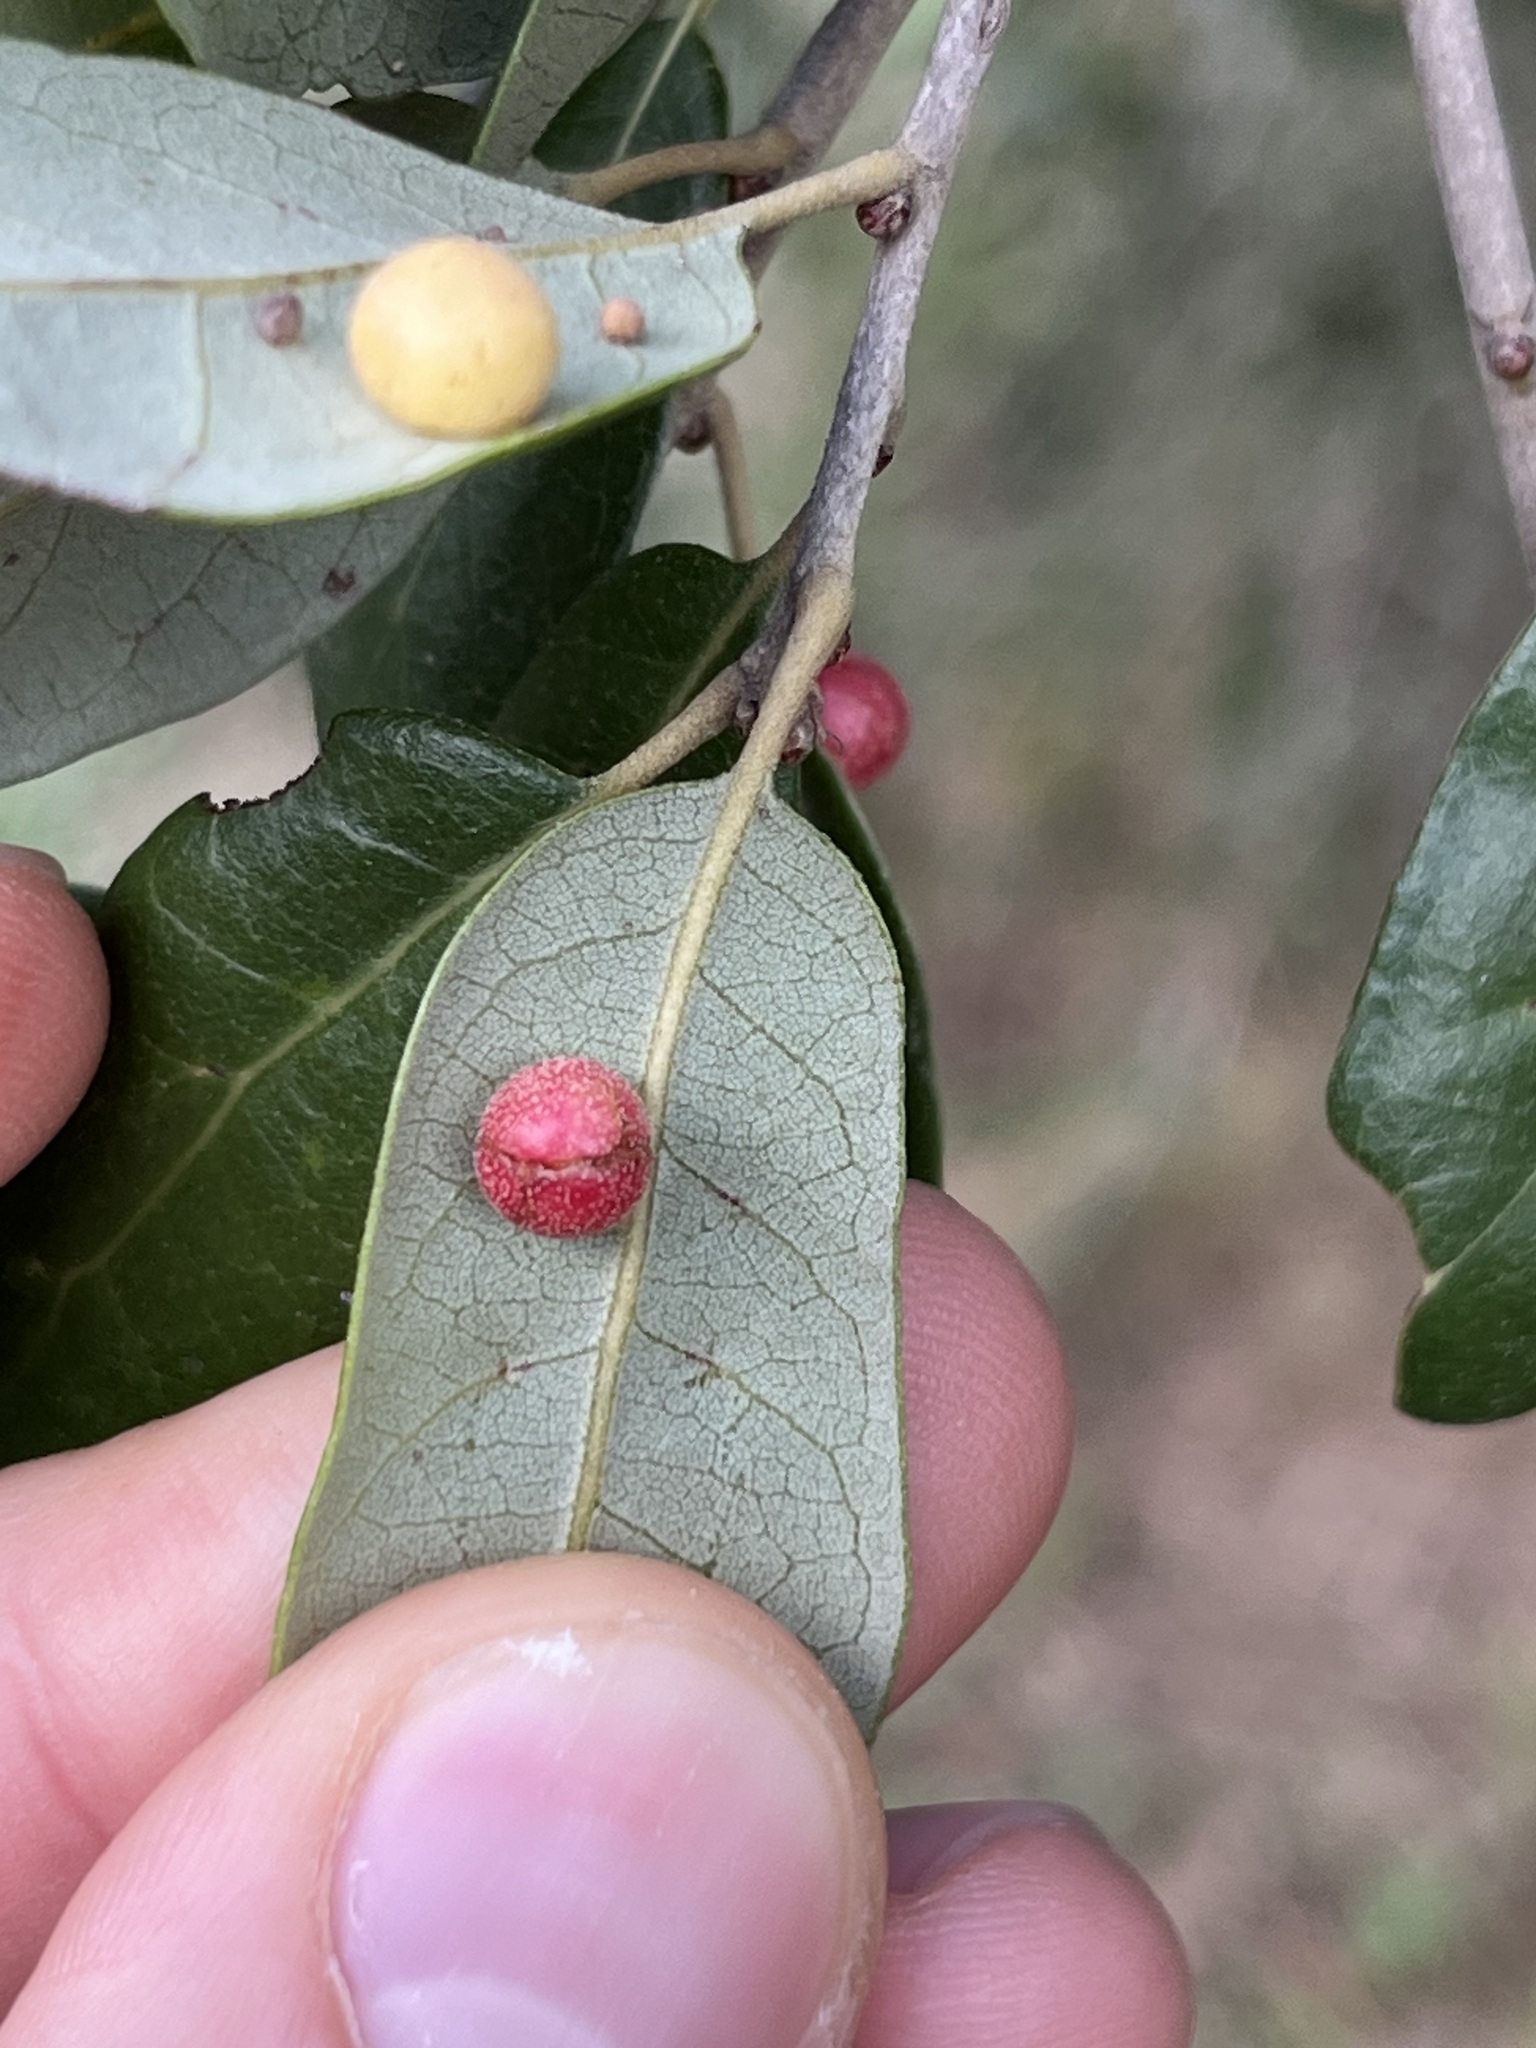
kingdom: Animalia
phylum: Arthropoda
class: Insecta
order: Hymenoptera
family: Cynipidae
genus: Belonocnema
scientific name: Belonocnema kinseyi
